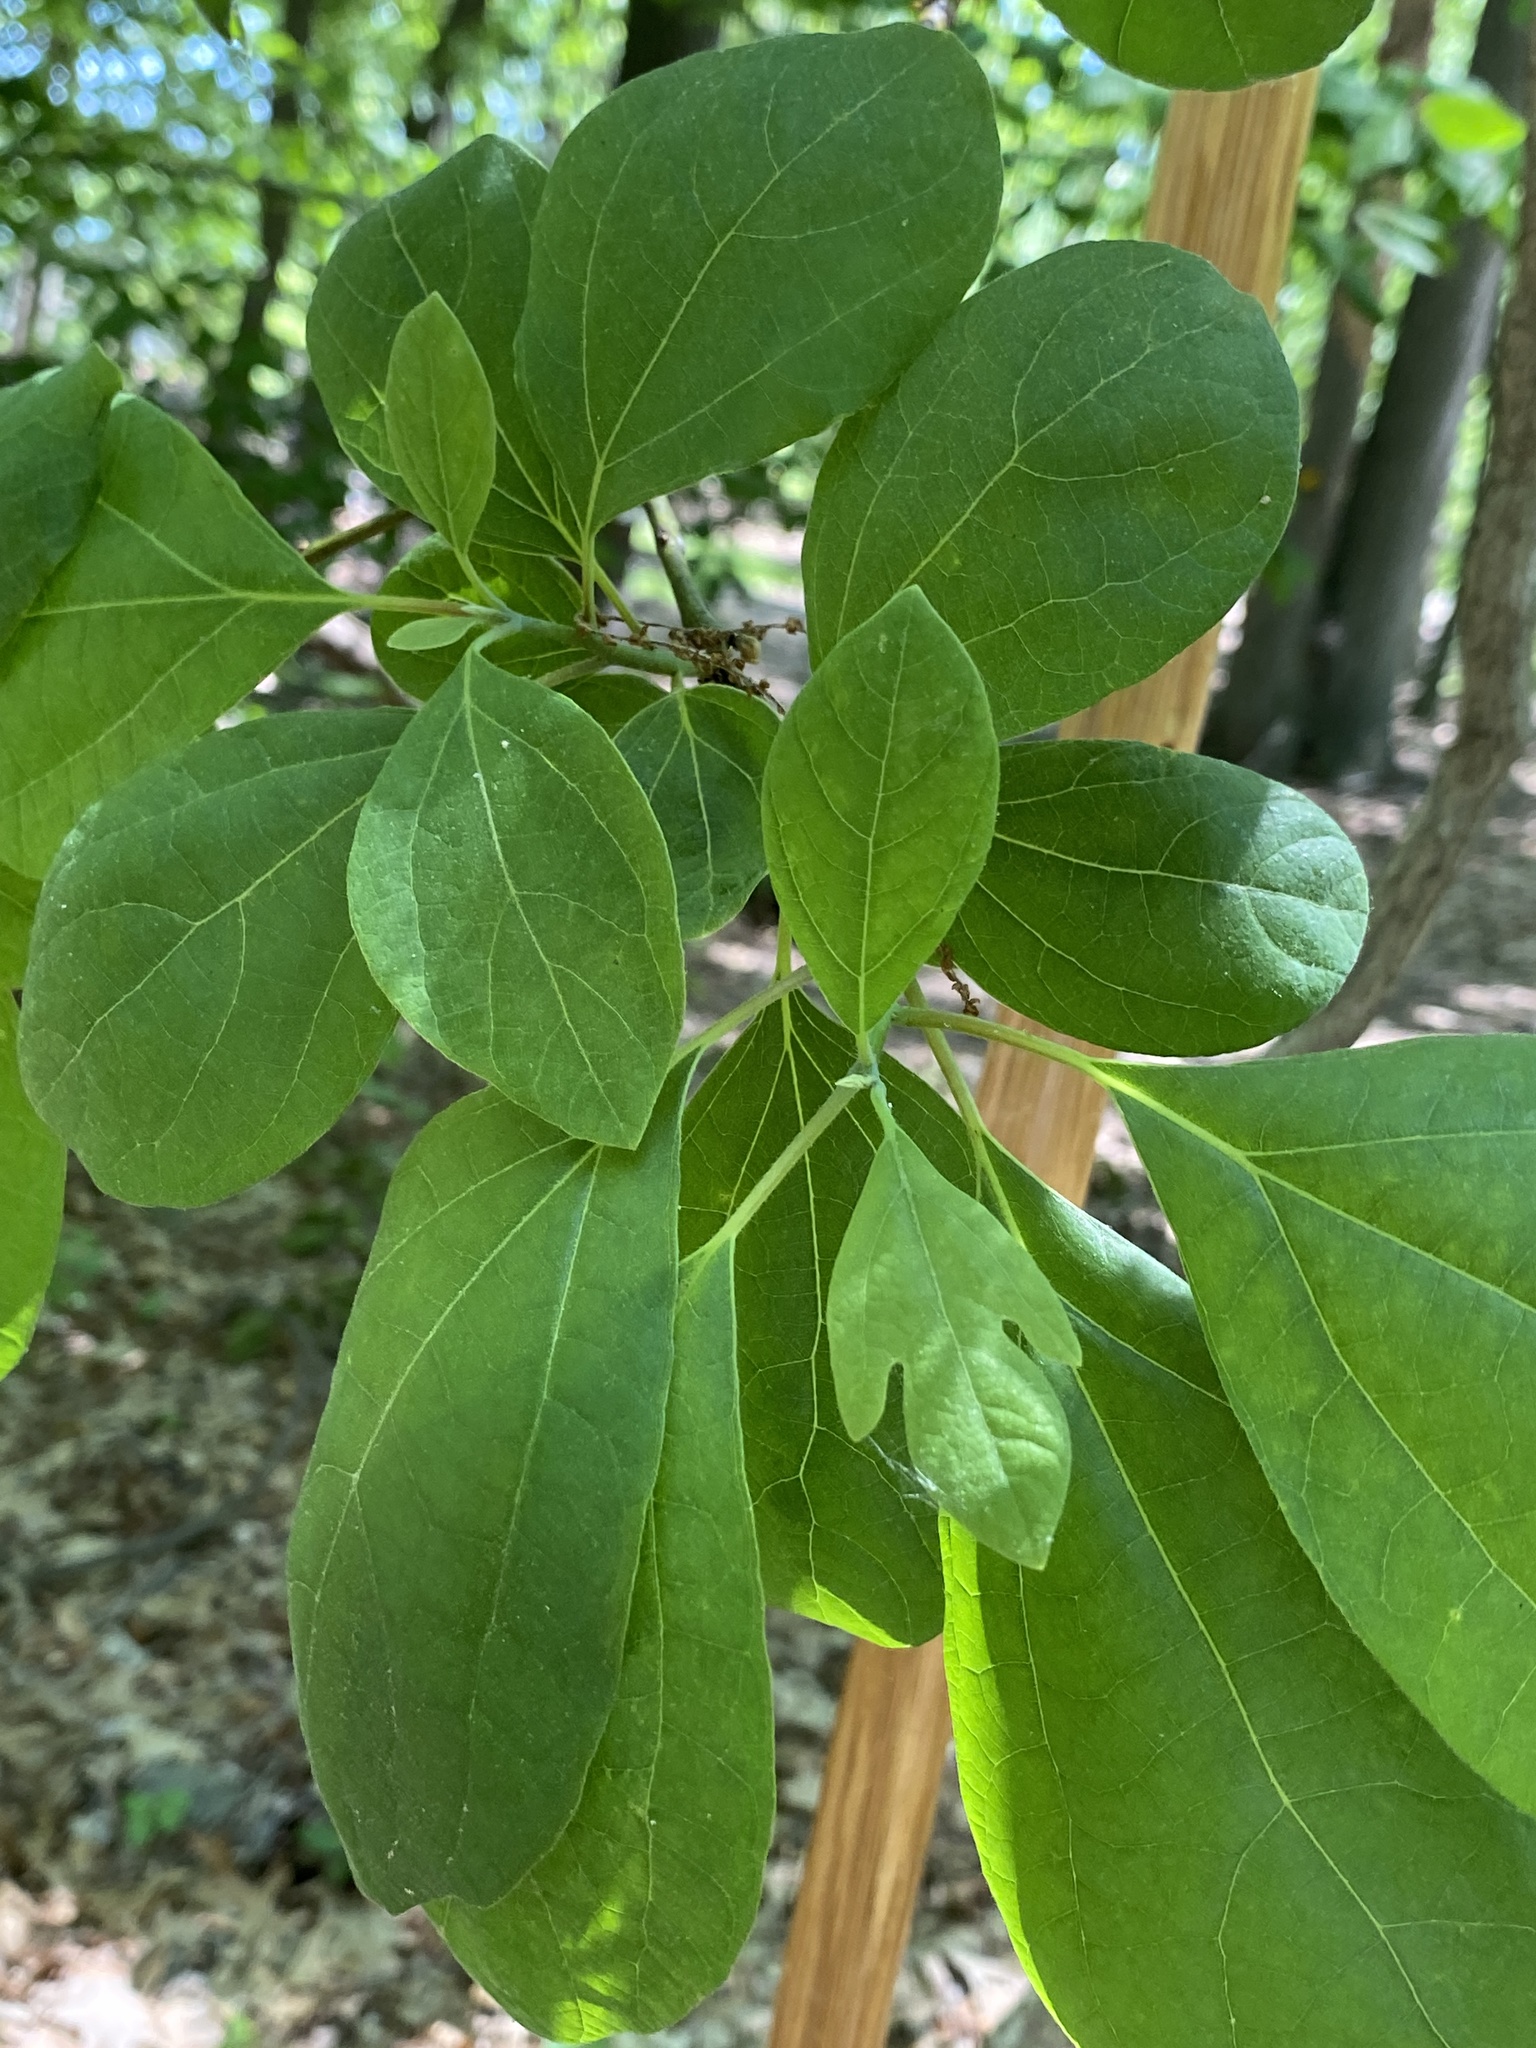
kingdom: Plantae
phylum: Tracheophyta
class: Magnoliopsida
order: Laurales
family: Lauraceae
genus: Sassafras
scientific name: Sassafras albidum
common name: Sassafras
